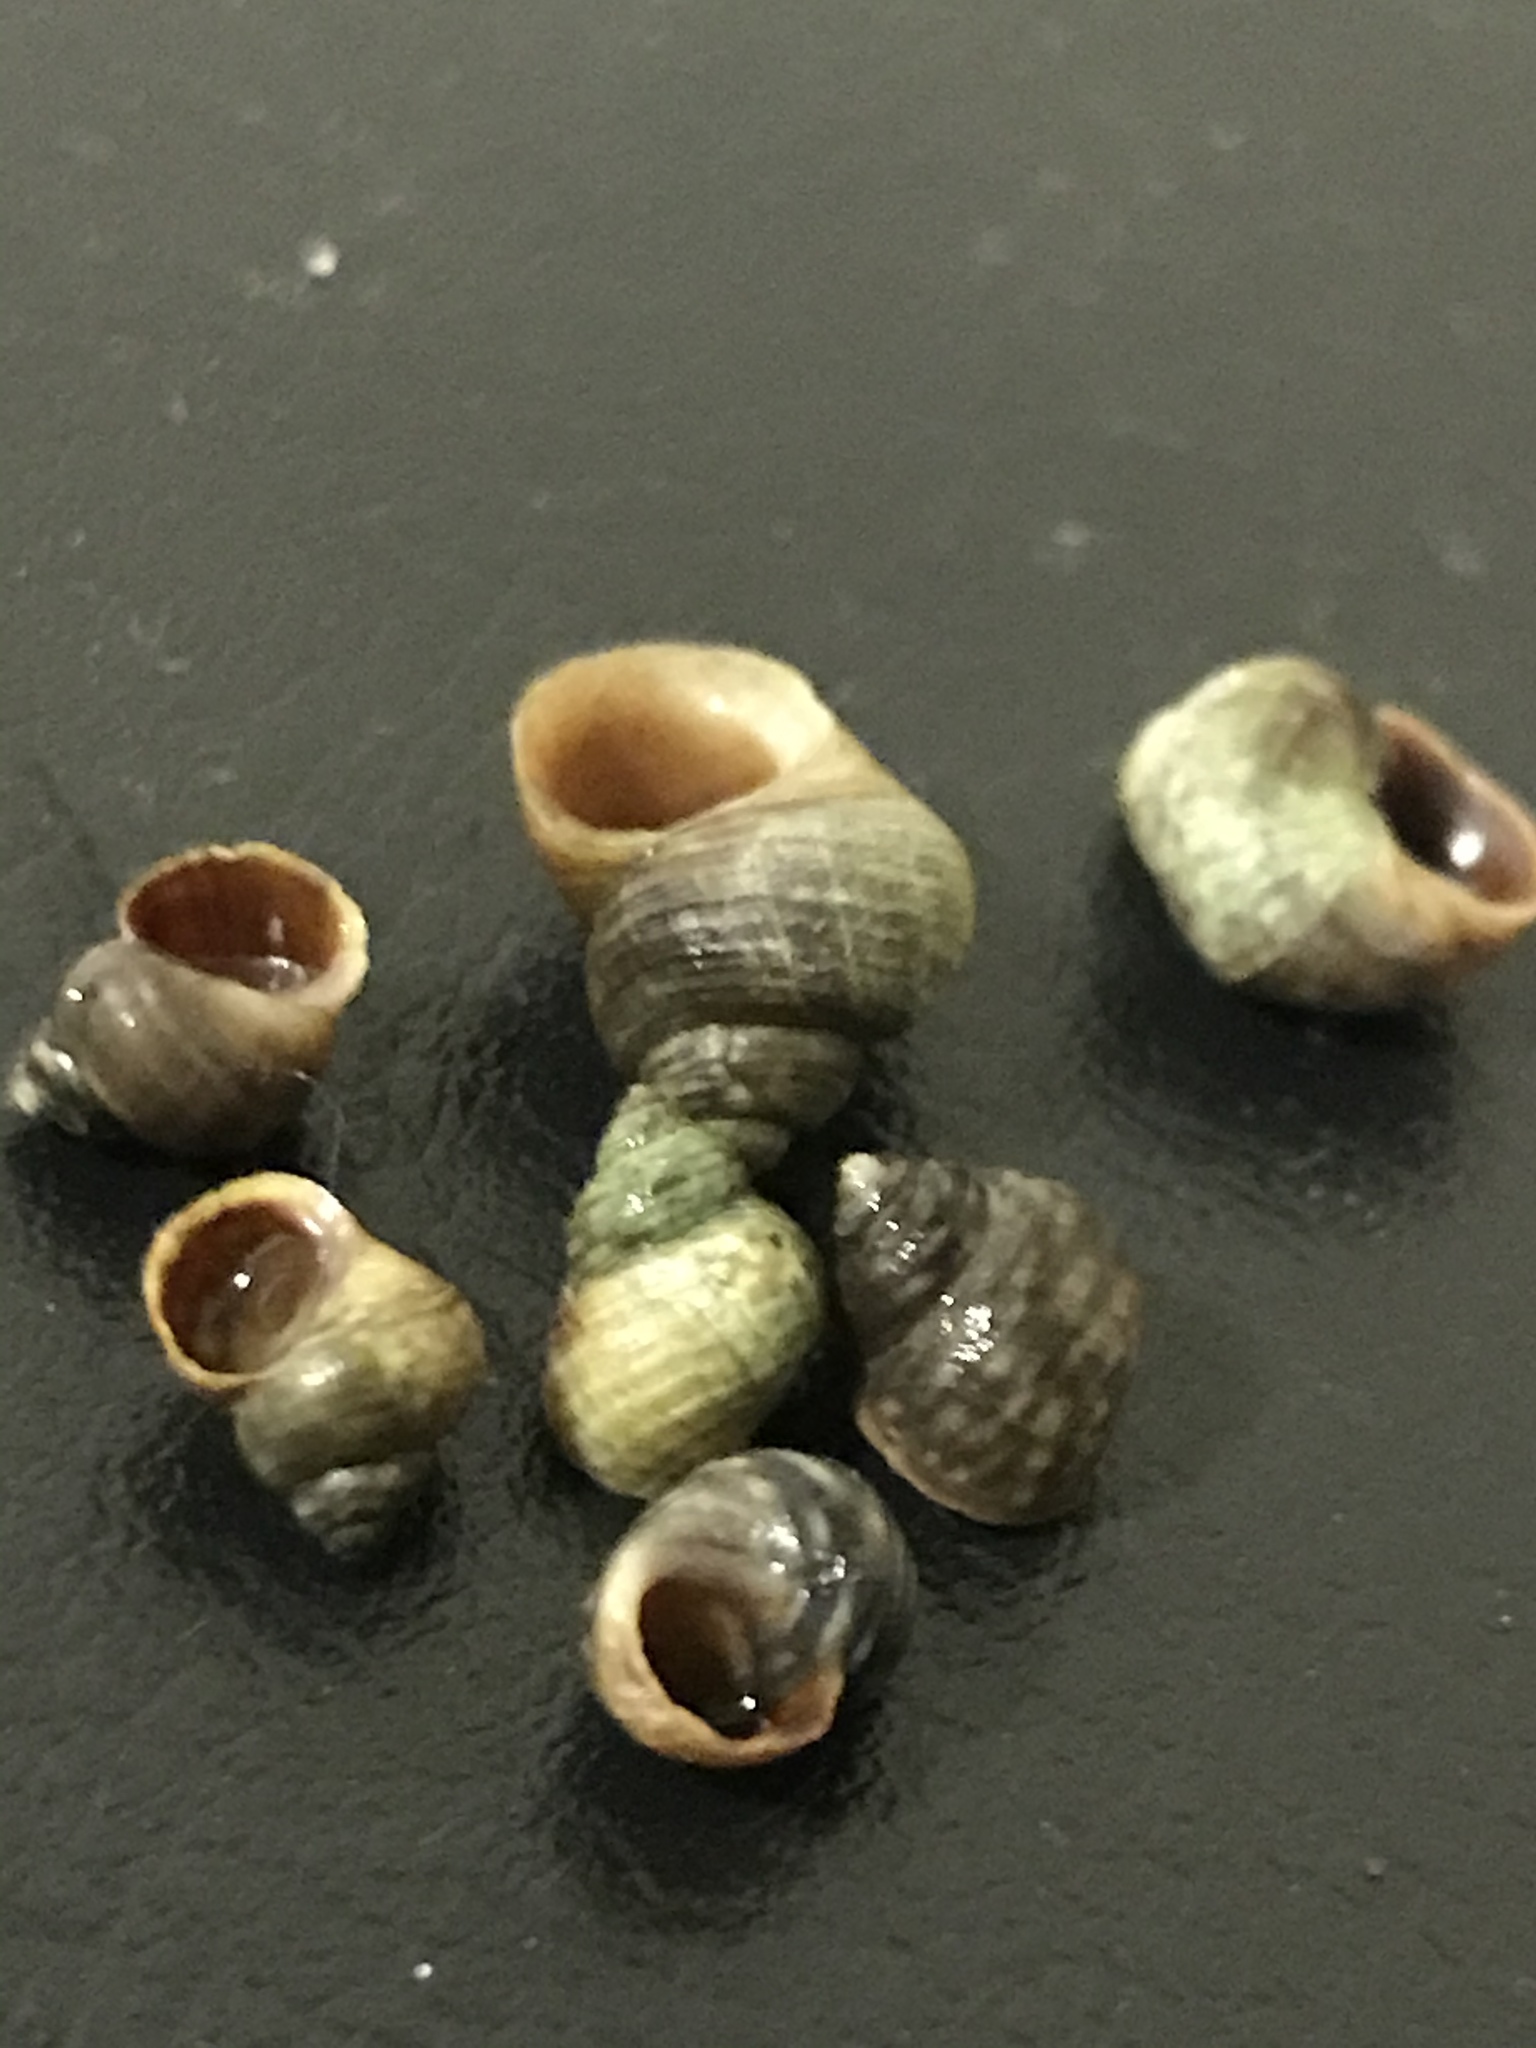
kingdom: Animalia
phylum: Mollusca
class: Gastropoda
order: Littorinimorpha
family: Littorinidae
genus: Littorina
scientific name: Littorina saxatilis
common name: Black-lined periwinkle
